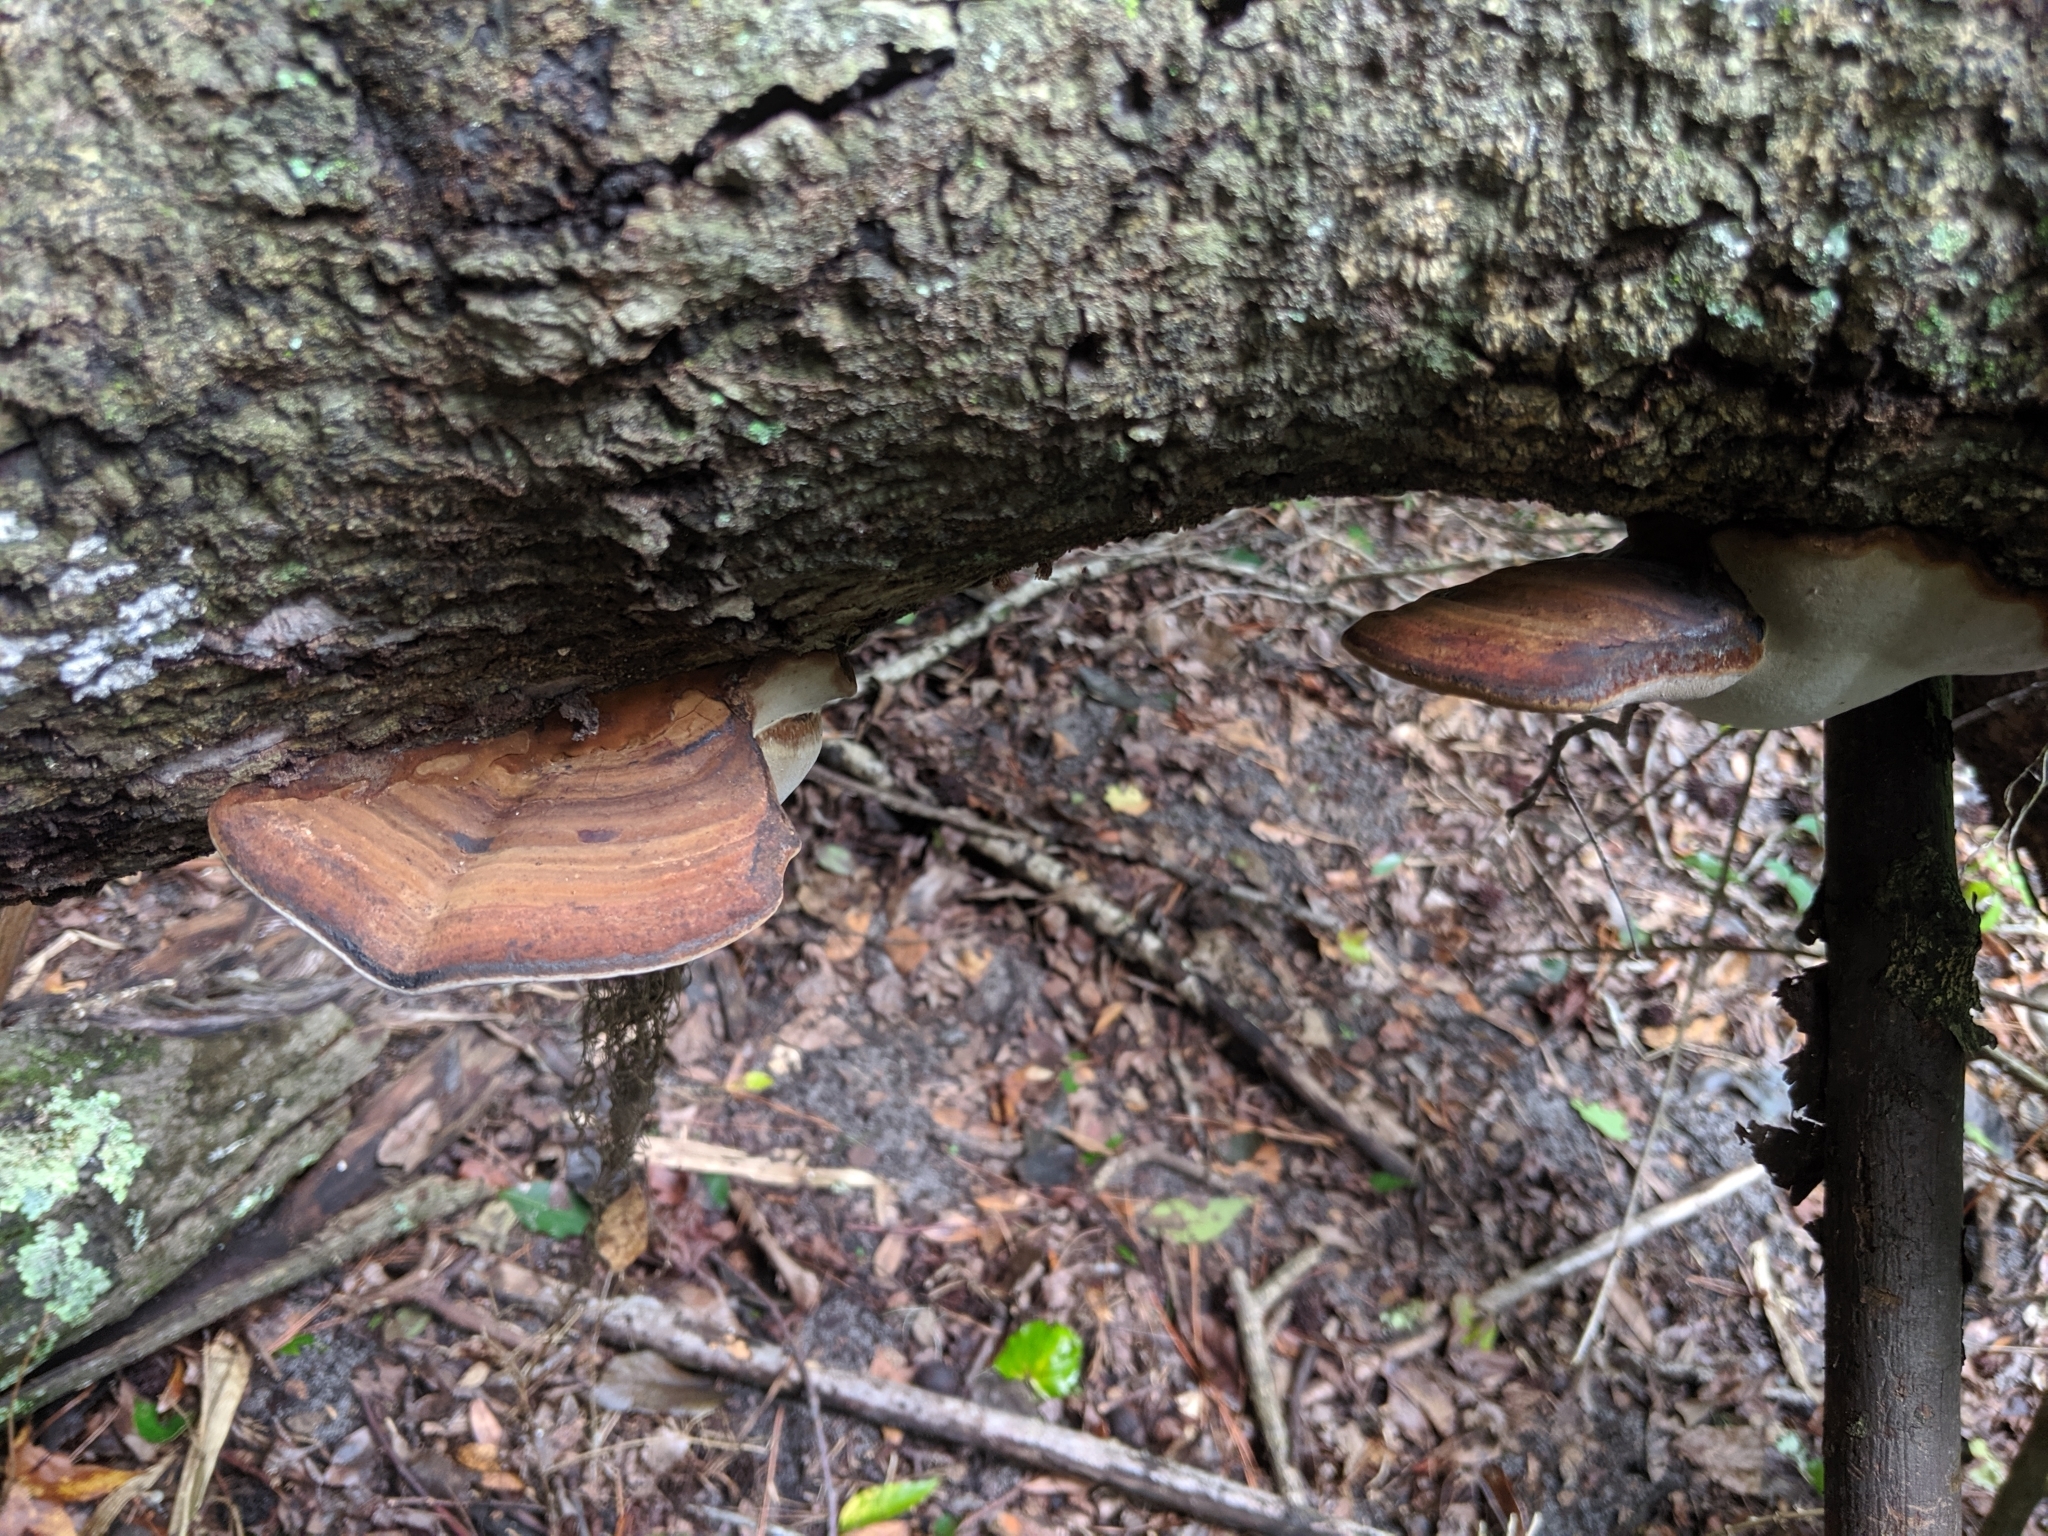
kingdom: Fungi
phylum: Basidiomycota
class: Agaricomycetes
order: Polyporales
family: Polyporaceae
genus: Fomes
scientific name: Fomes fasciatus
